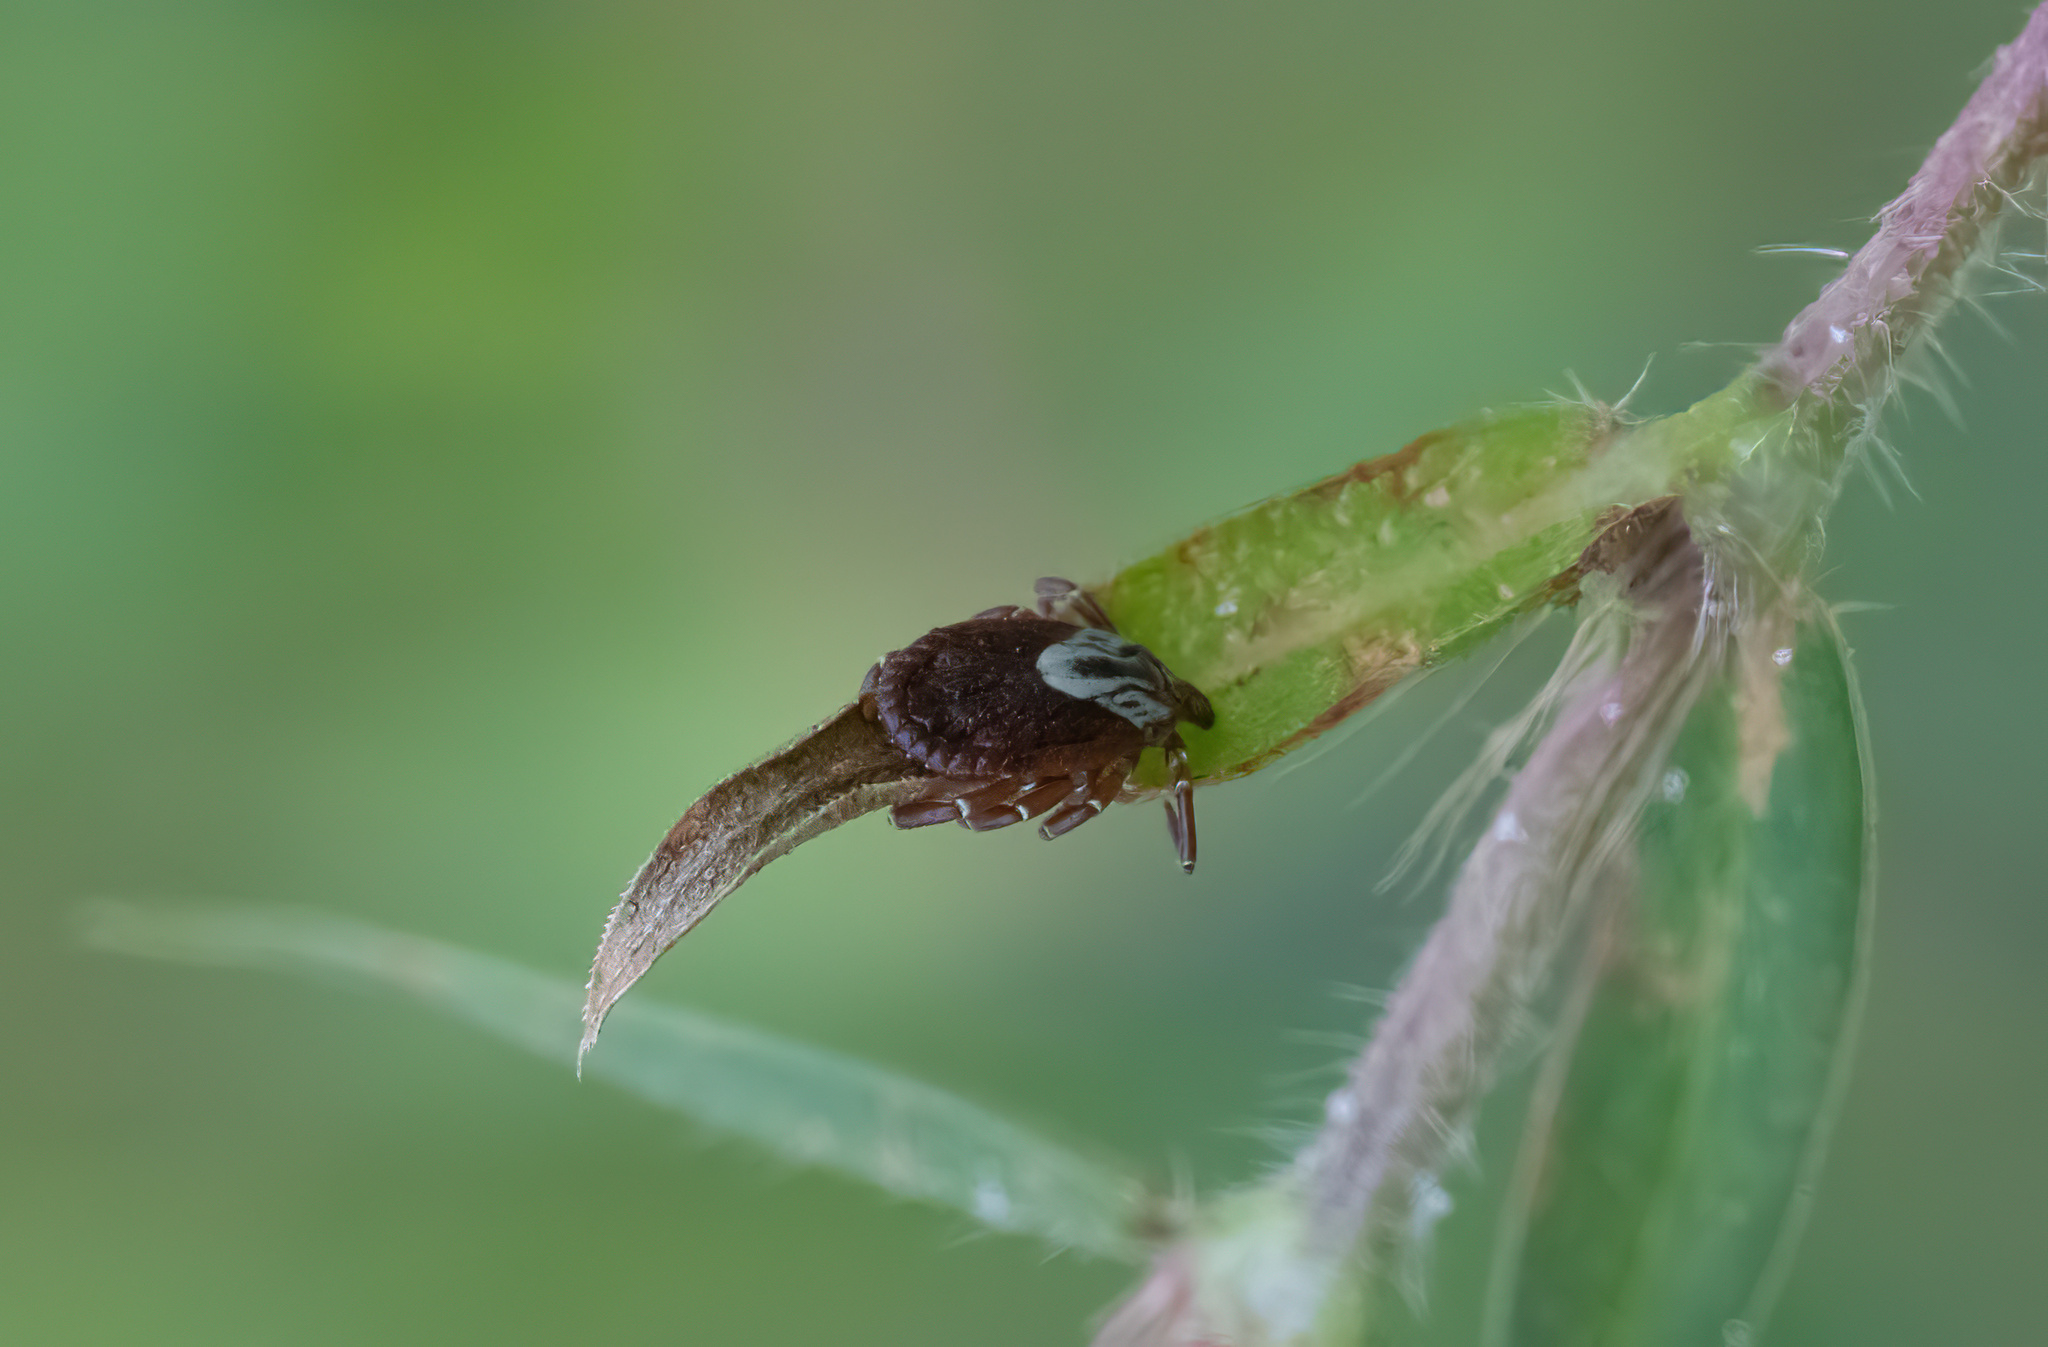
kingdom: Animalia
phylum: Arthropoda
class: Arachnida
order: Ixodida
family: Ixodidae
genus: Amblyomma
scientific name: Amblyomma maculatum
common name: Gulf coast tick
